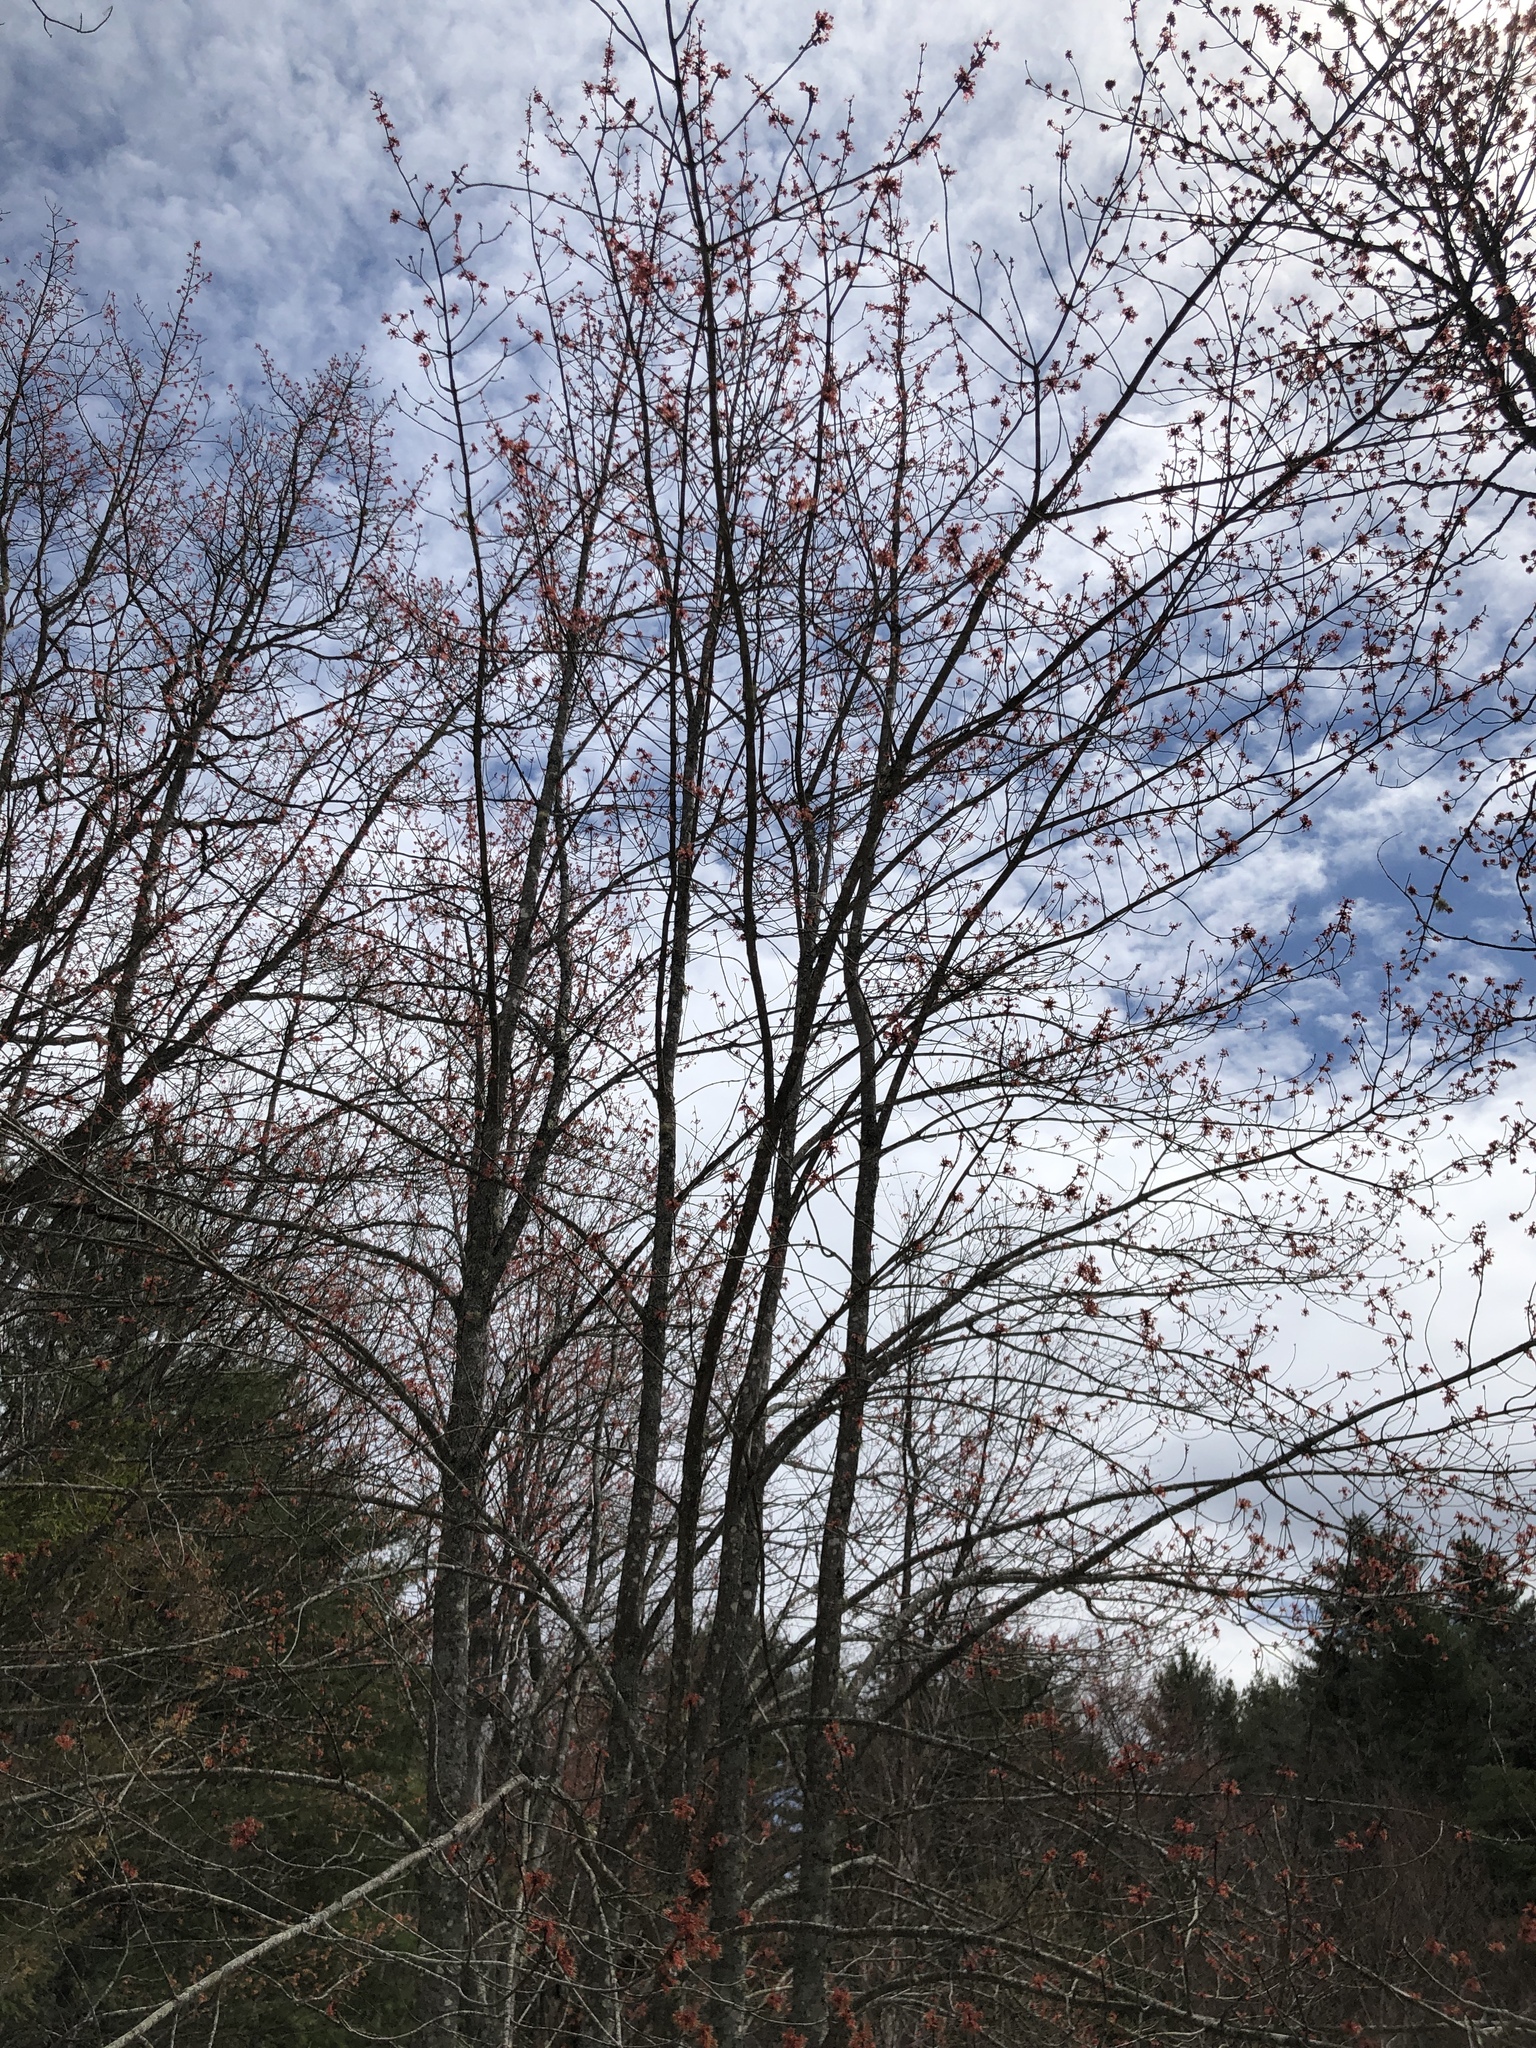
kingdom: Plantae
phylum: Tracheophyta
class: Magnoliopsida
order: Sapindales
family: Sapindaceae
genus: Acer
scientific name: Acer rubrum
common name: Red maple
